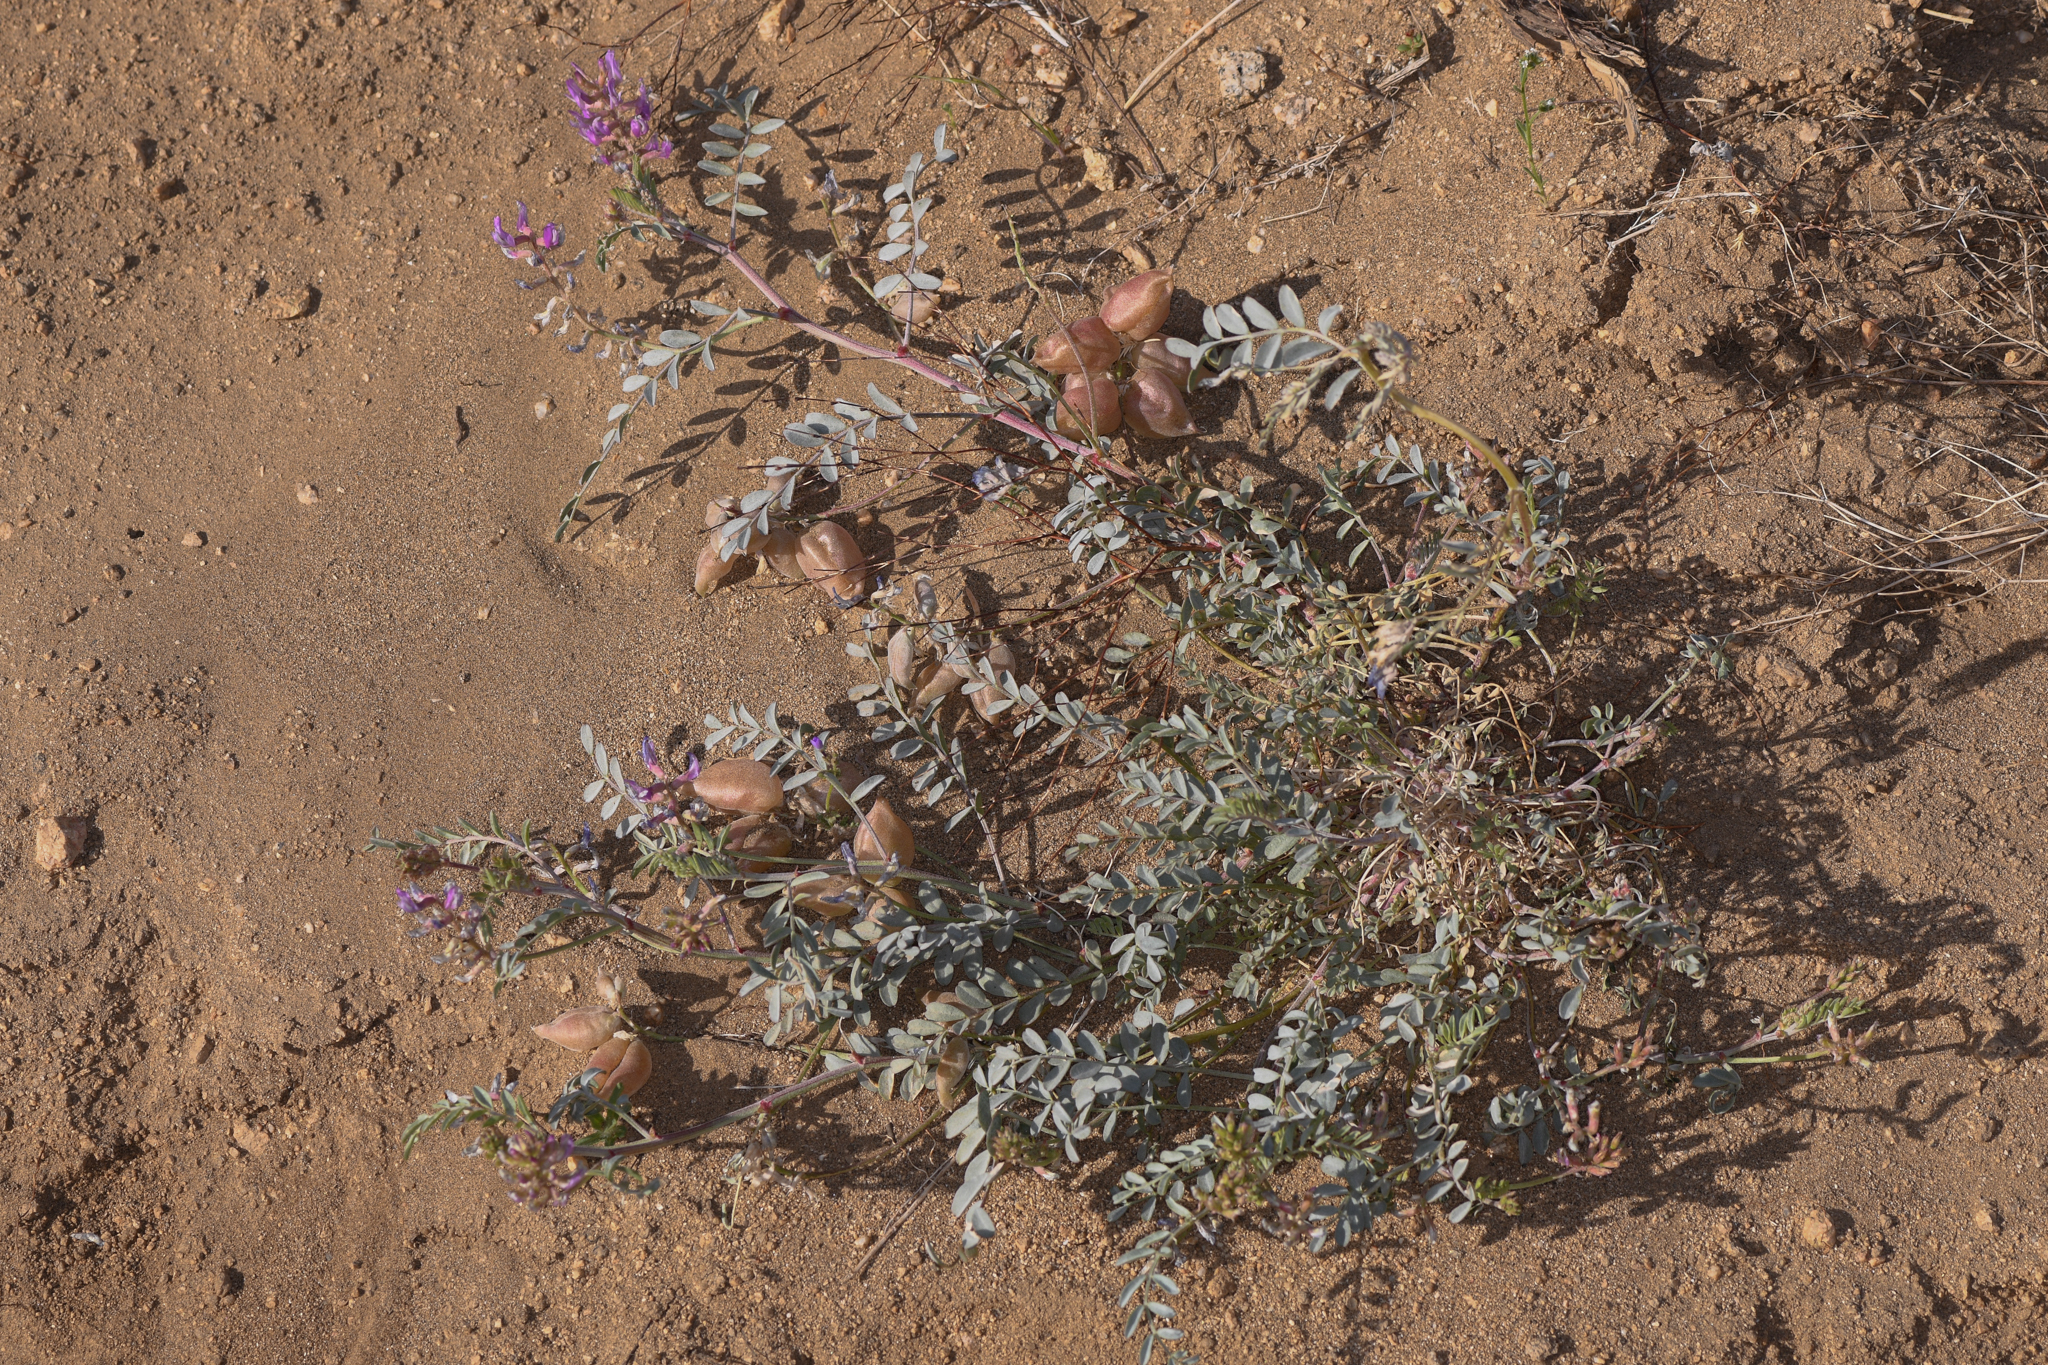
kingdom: Plantae
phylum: Tracheophyta
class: Magnoliopsida
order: Fabales
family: Fabaceae
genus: Astragalus
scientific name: Astragalus lentiginosus
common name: Freckled milkvetch
